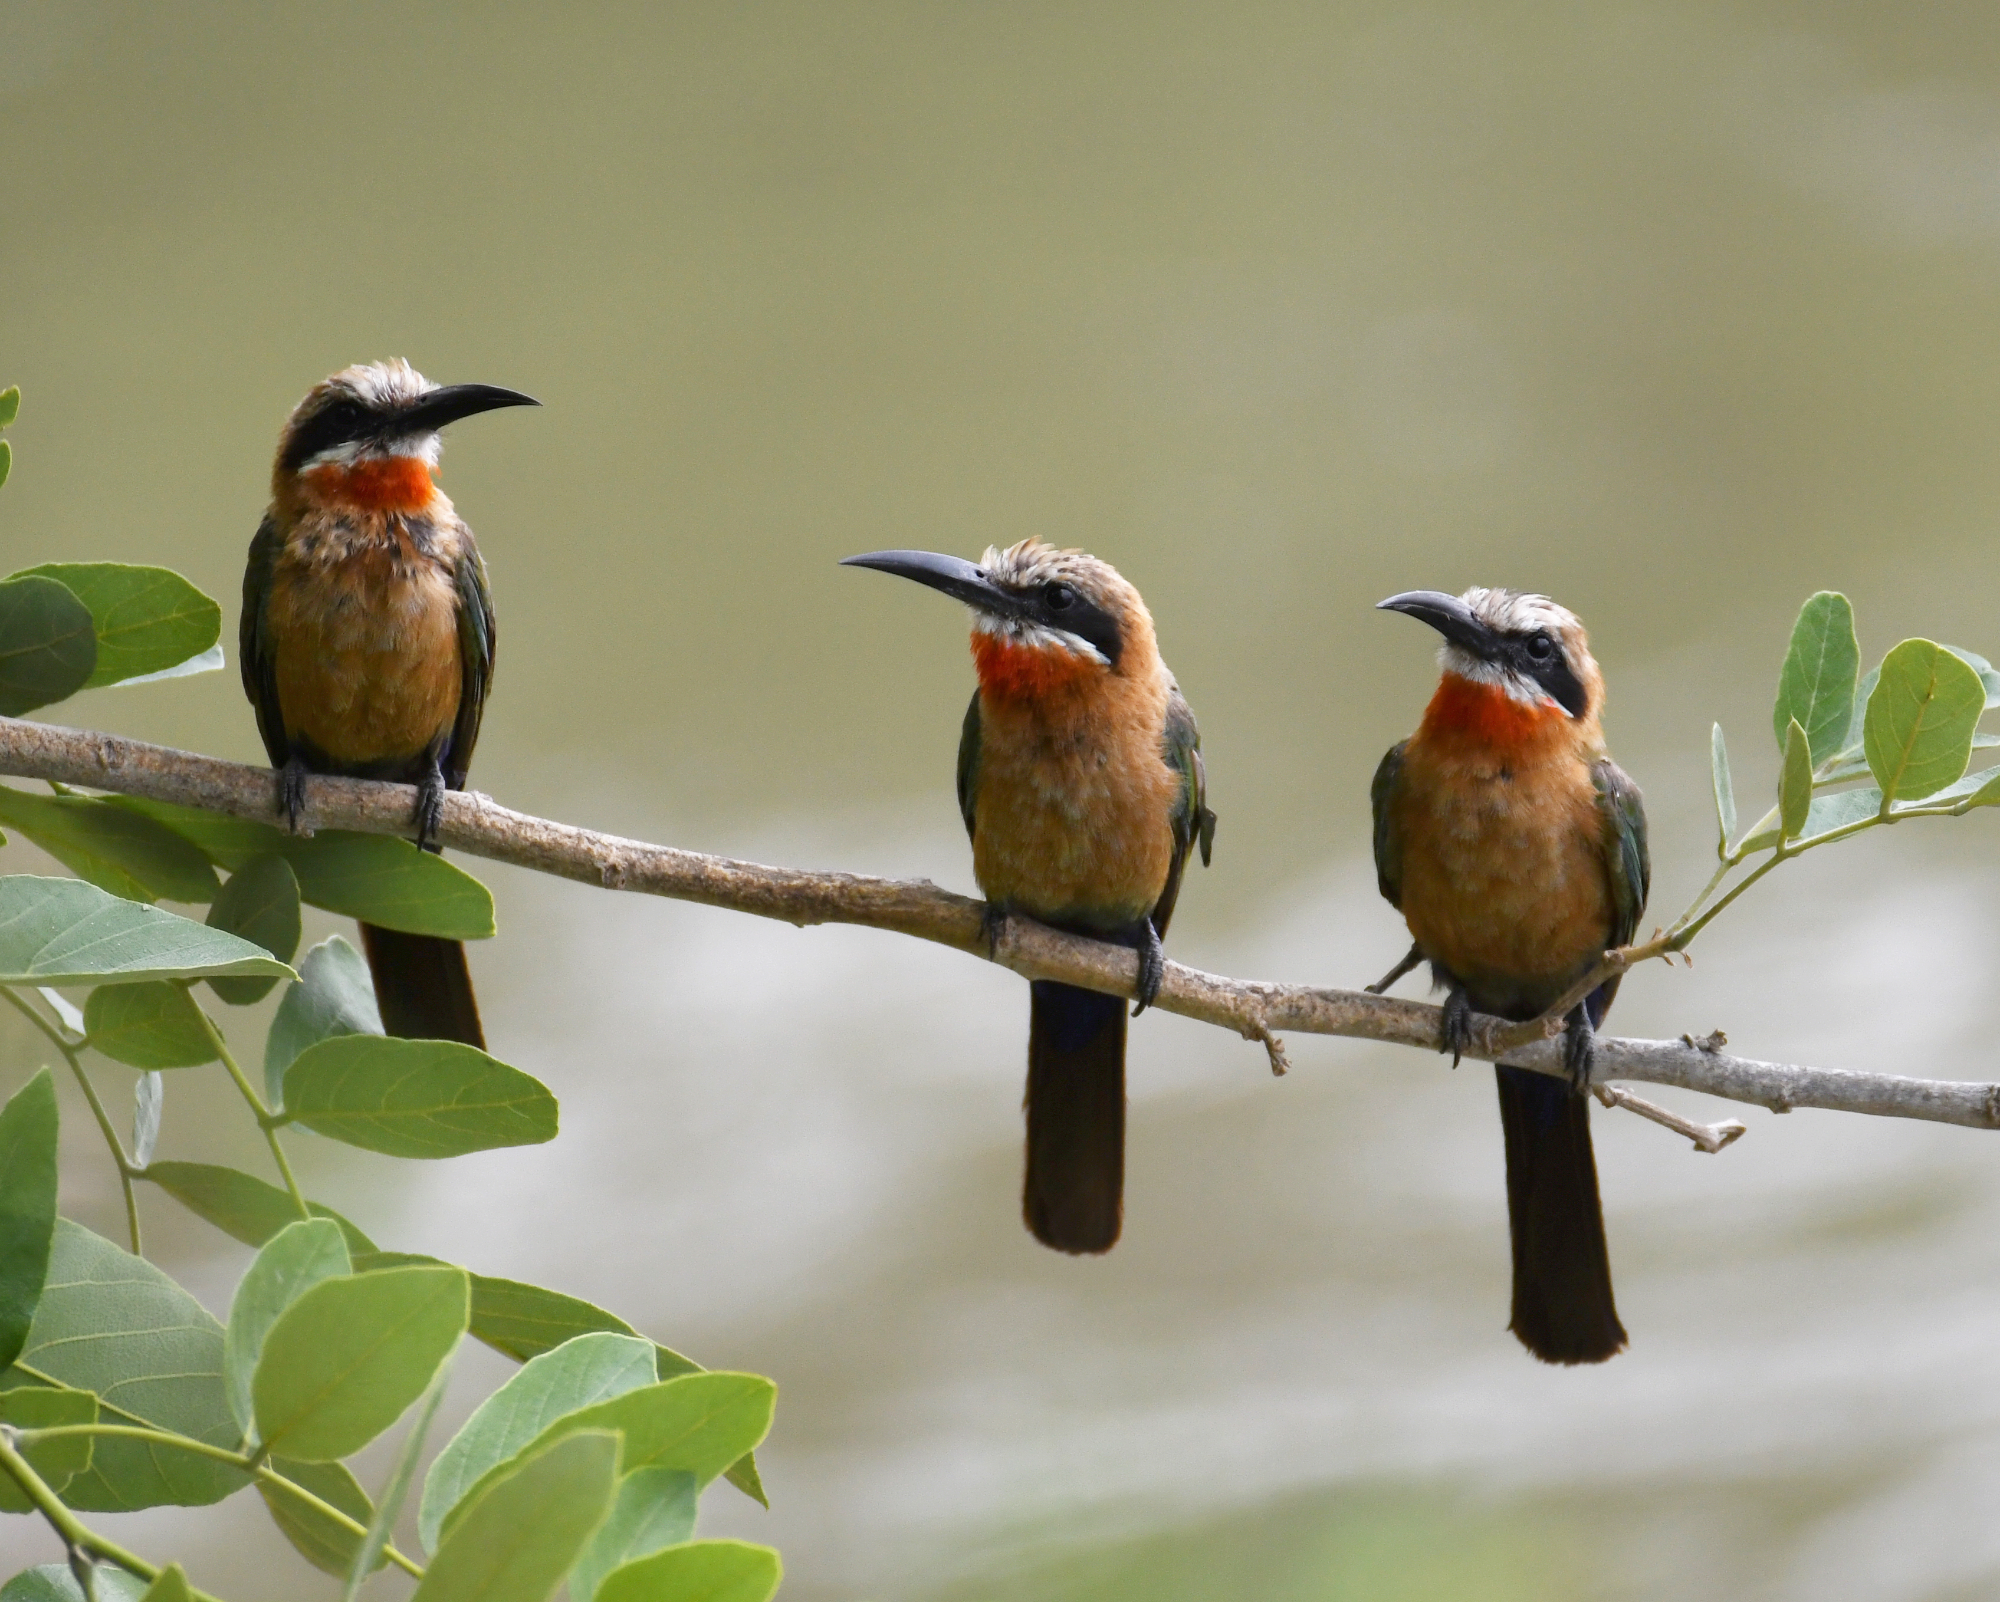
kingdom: Animalia
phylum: Chordata
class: Aves
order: Coraciiformes
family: Meropidae
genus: Merops
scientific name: Merops bullockoides
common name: White-fronted bee-eater
